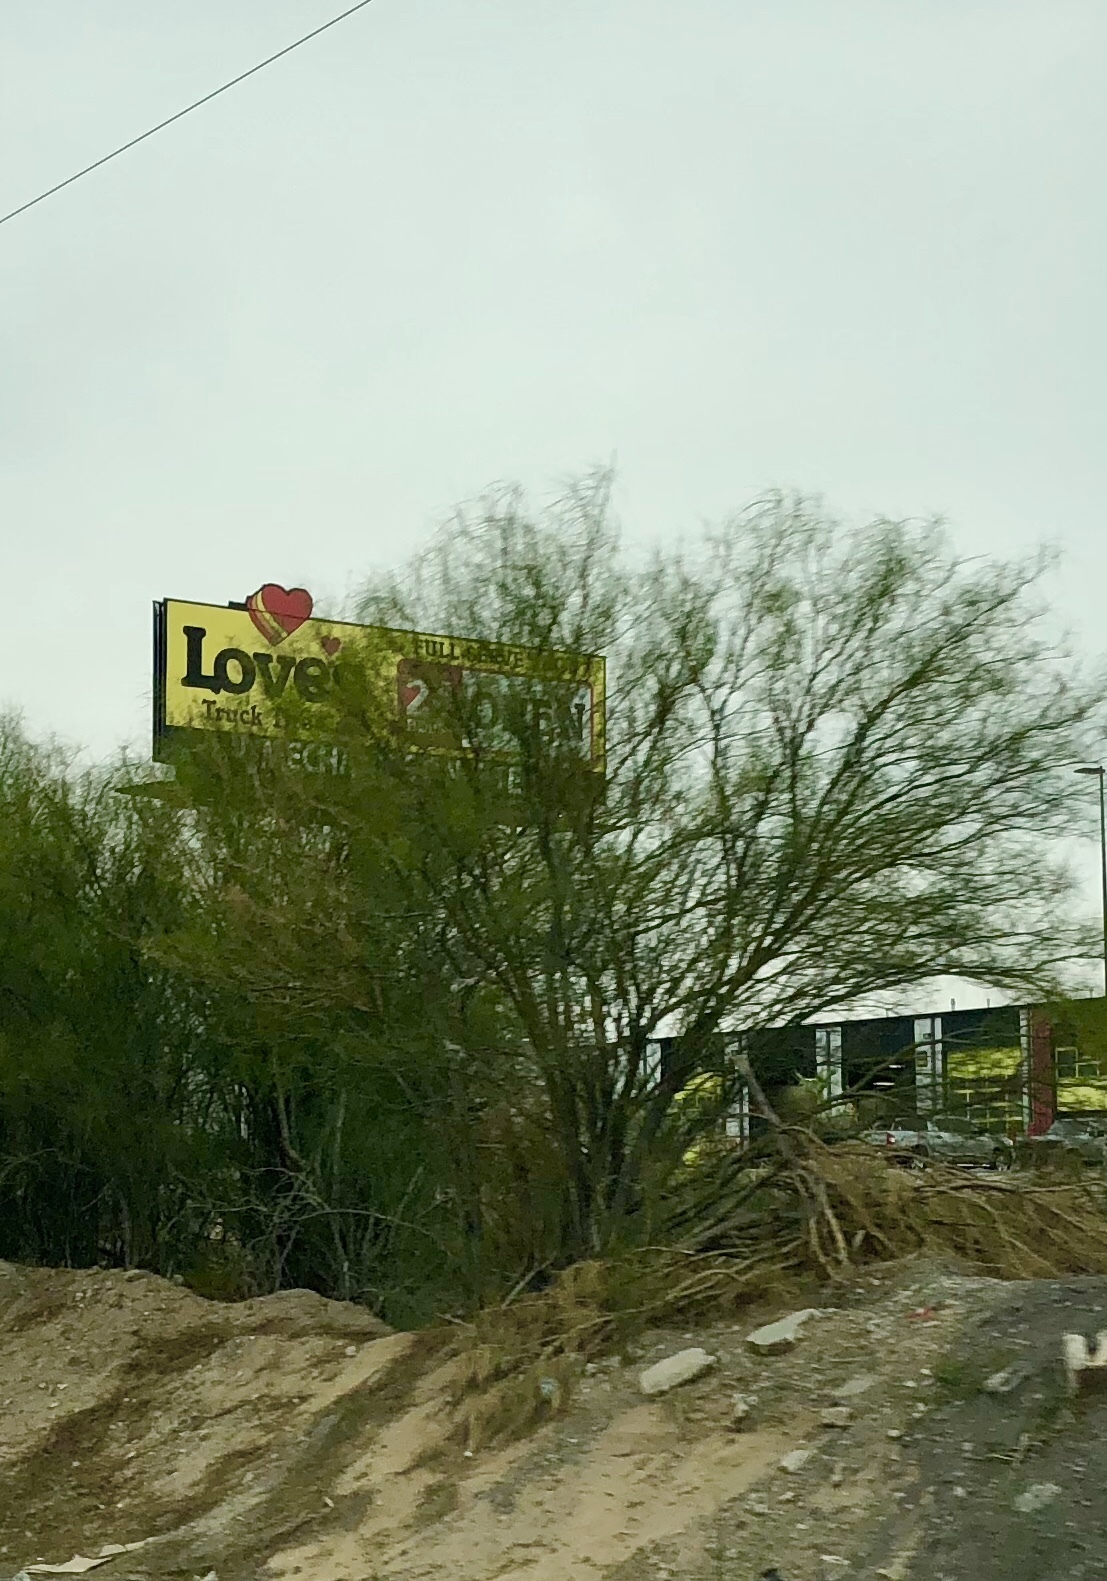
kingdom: Plantae
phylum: Tracheophyta
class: Magnoliopsida
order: Fabales
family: Fabaceae
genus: Parkinsonia
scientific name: Parkinsonia aculeata
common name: Jerusalem thorn
